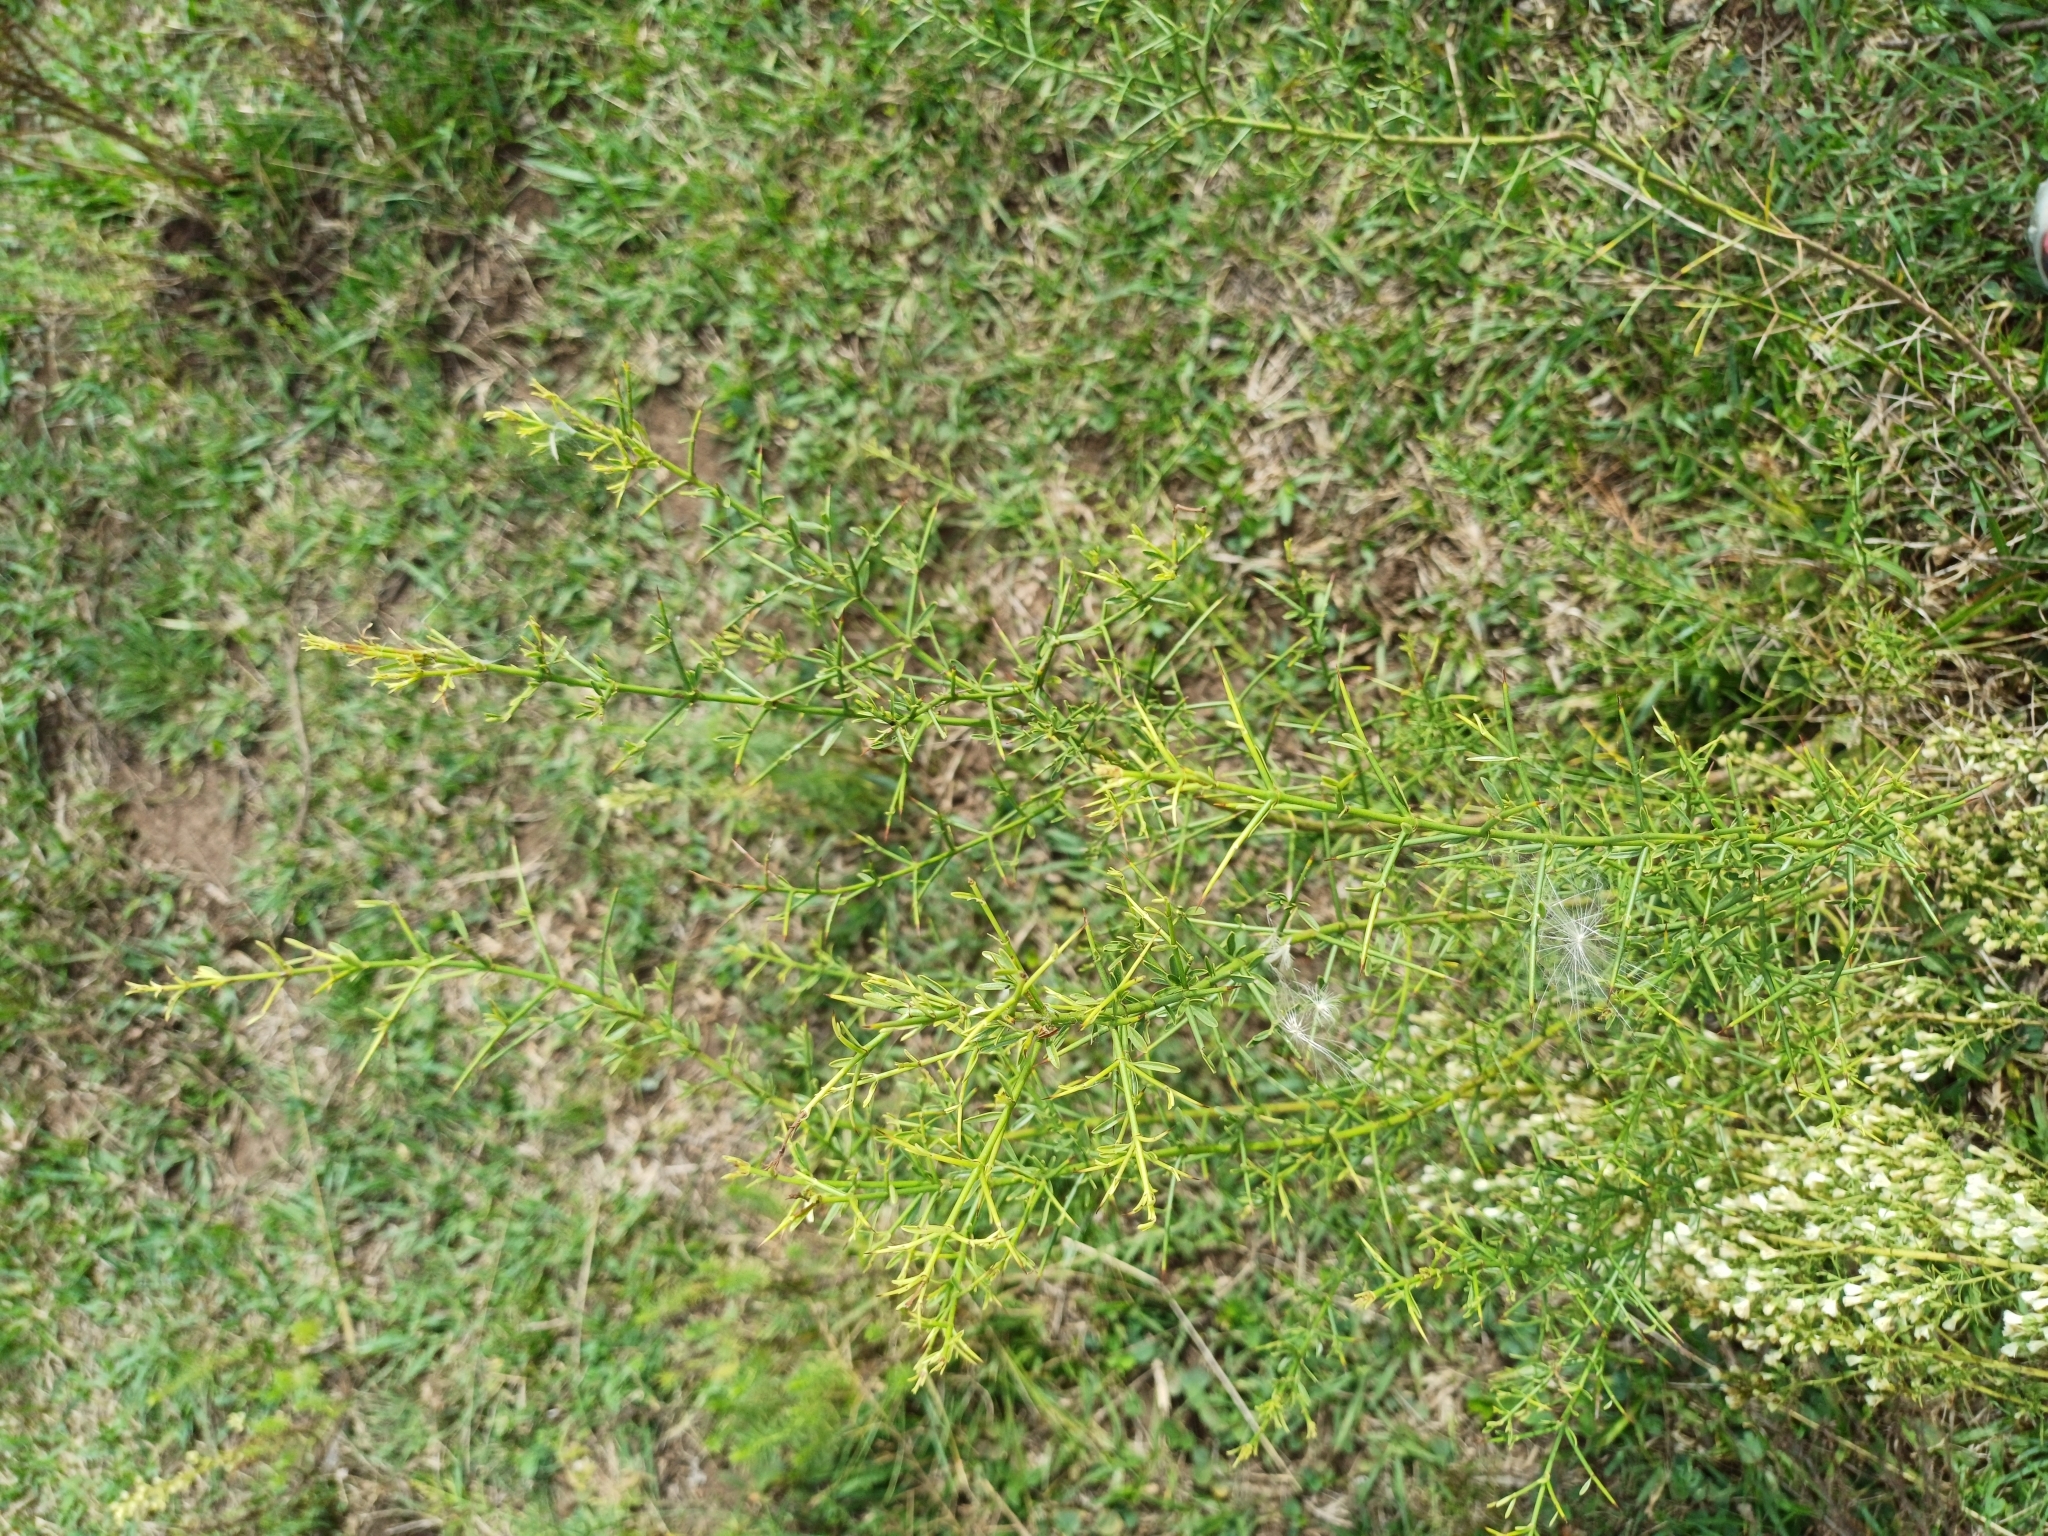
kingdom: Plantae
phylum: Tracheophyta
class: Magnoliopsida
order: Rosales
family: Rhamnaceae
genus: Discaria
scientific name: Discaria americana
